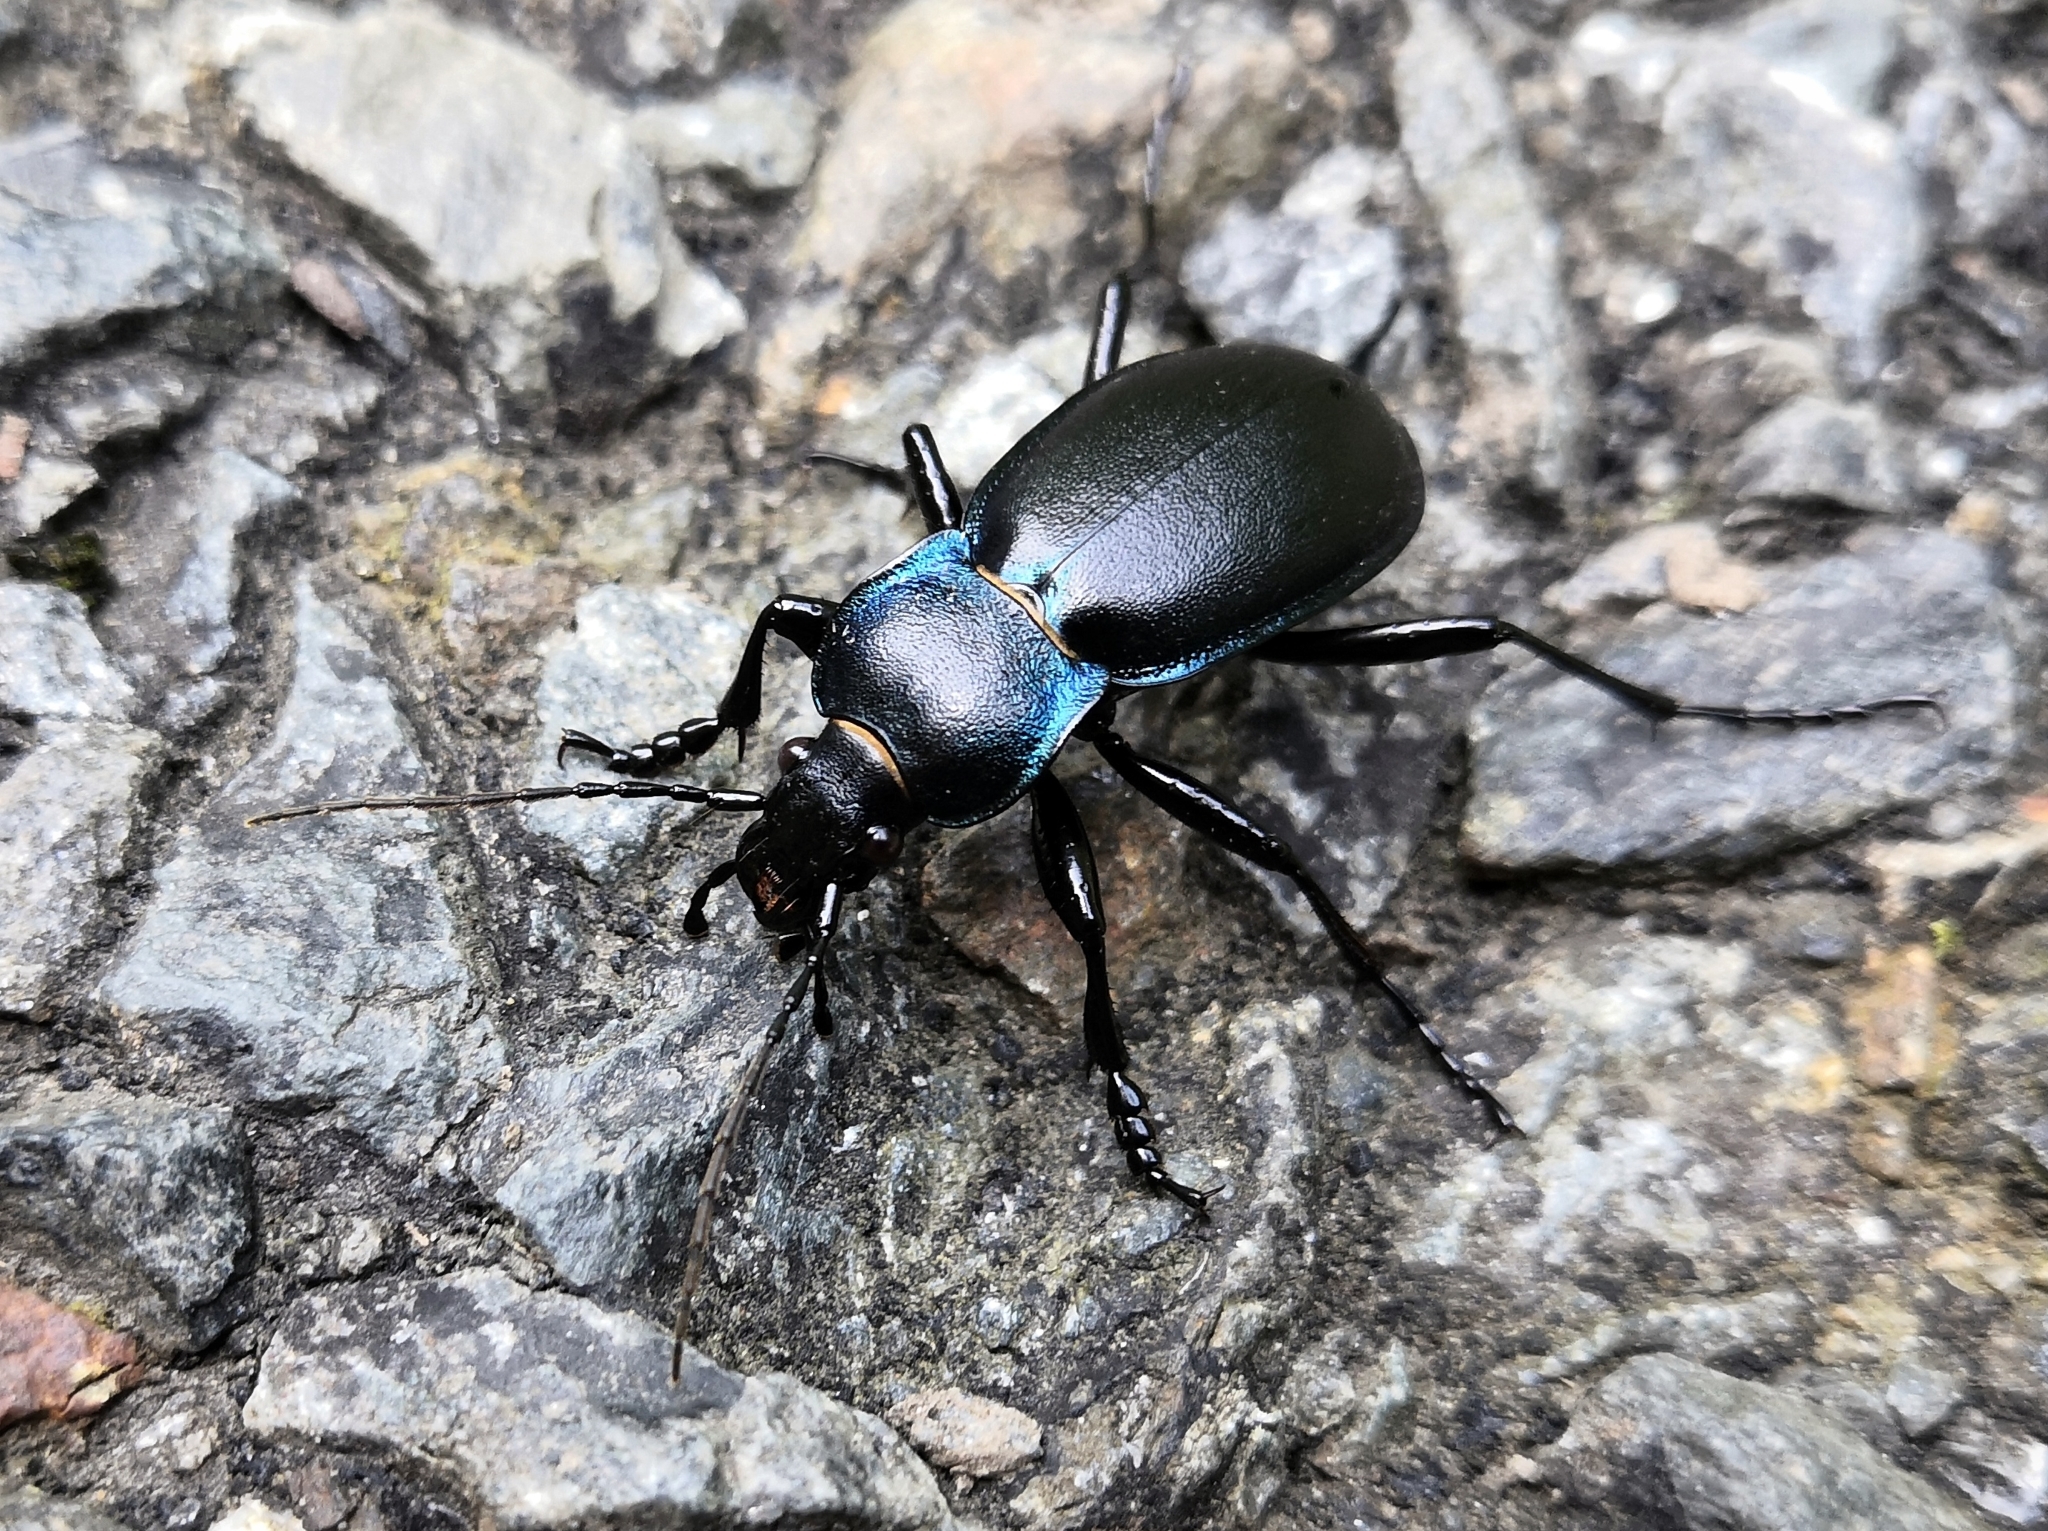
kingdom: Animalia
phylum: Arthropoda
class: Insecta
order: Coleoptera
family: Carabidae
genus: Carabus
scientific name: Carabus violaceus
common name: Violet ground beetle
